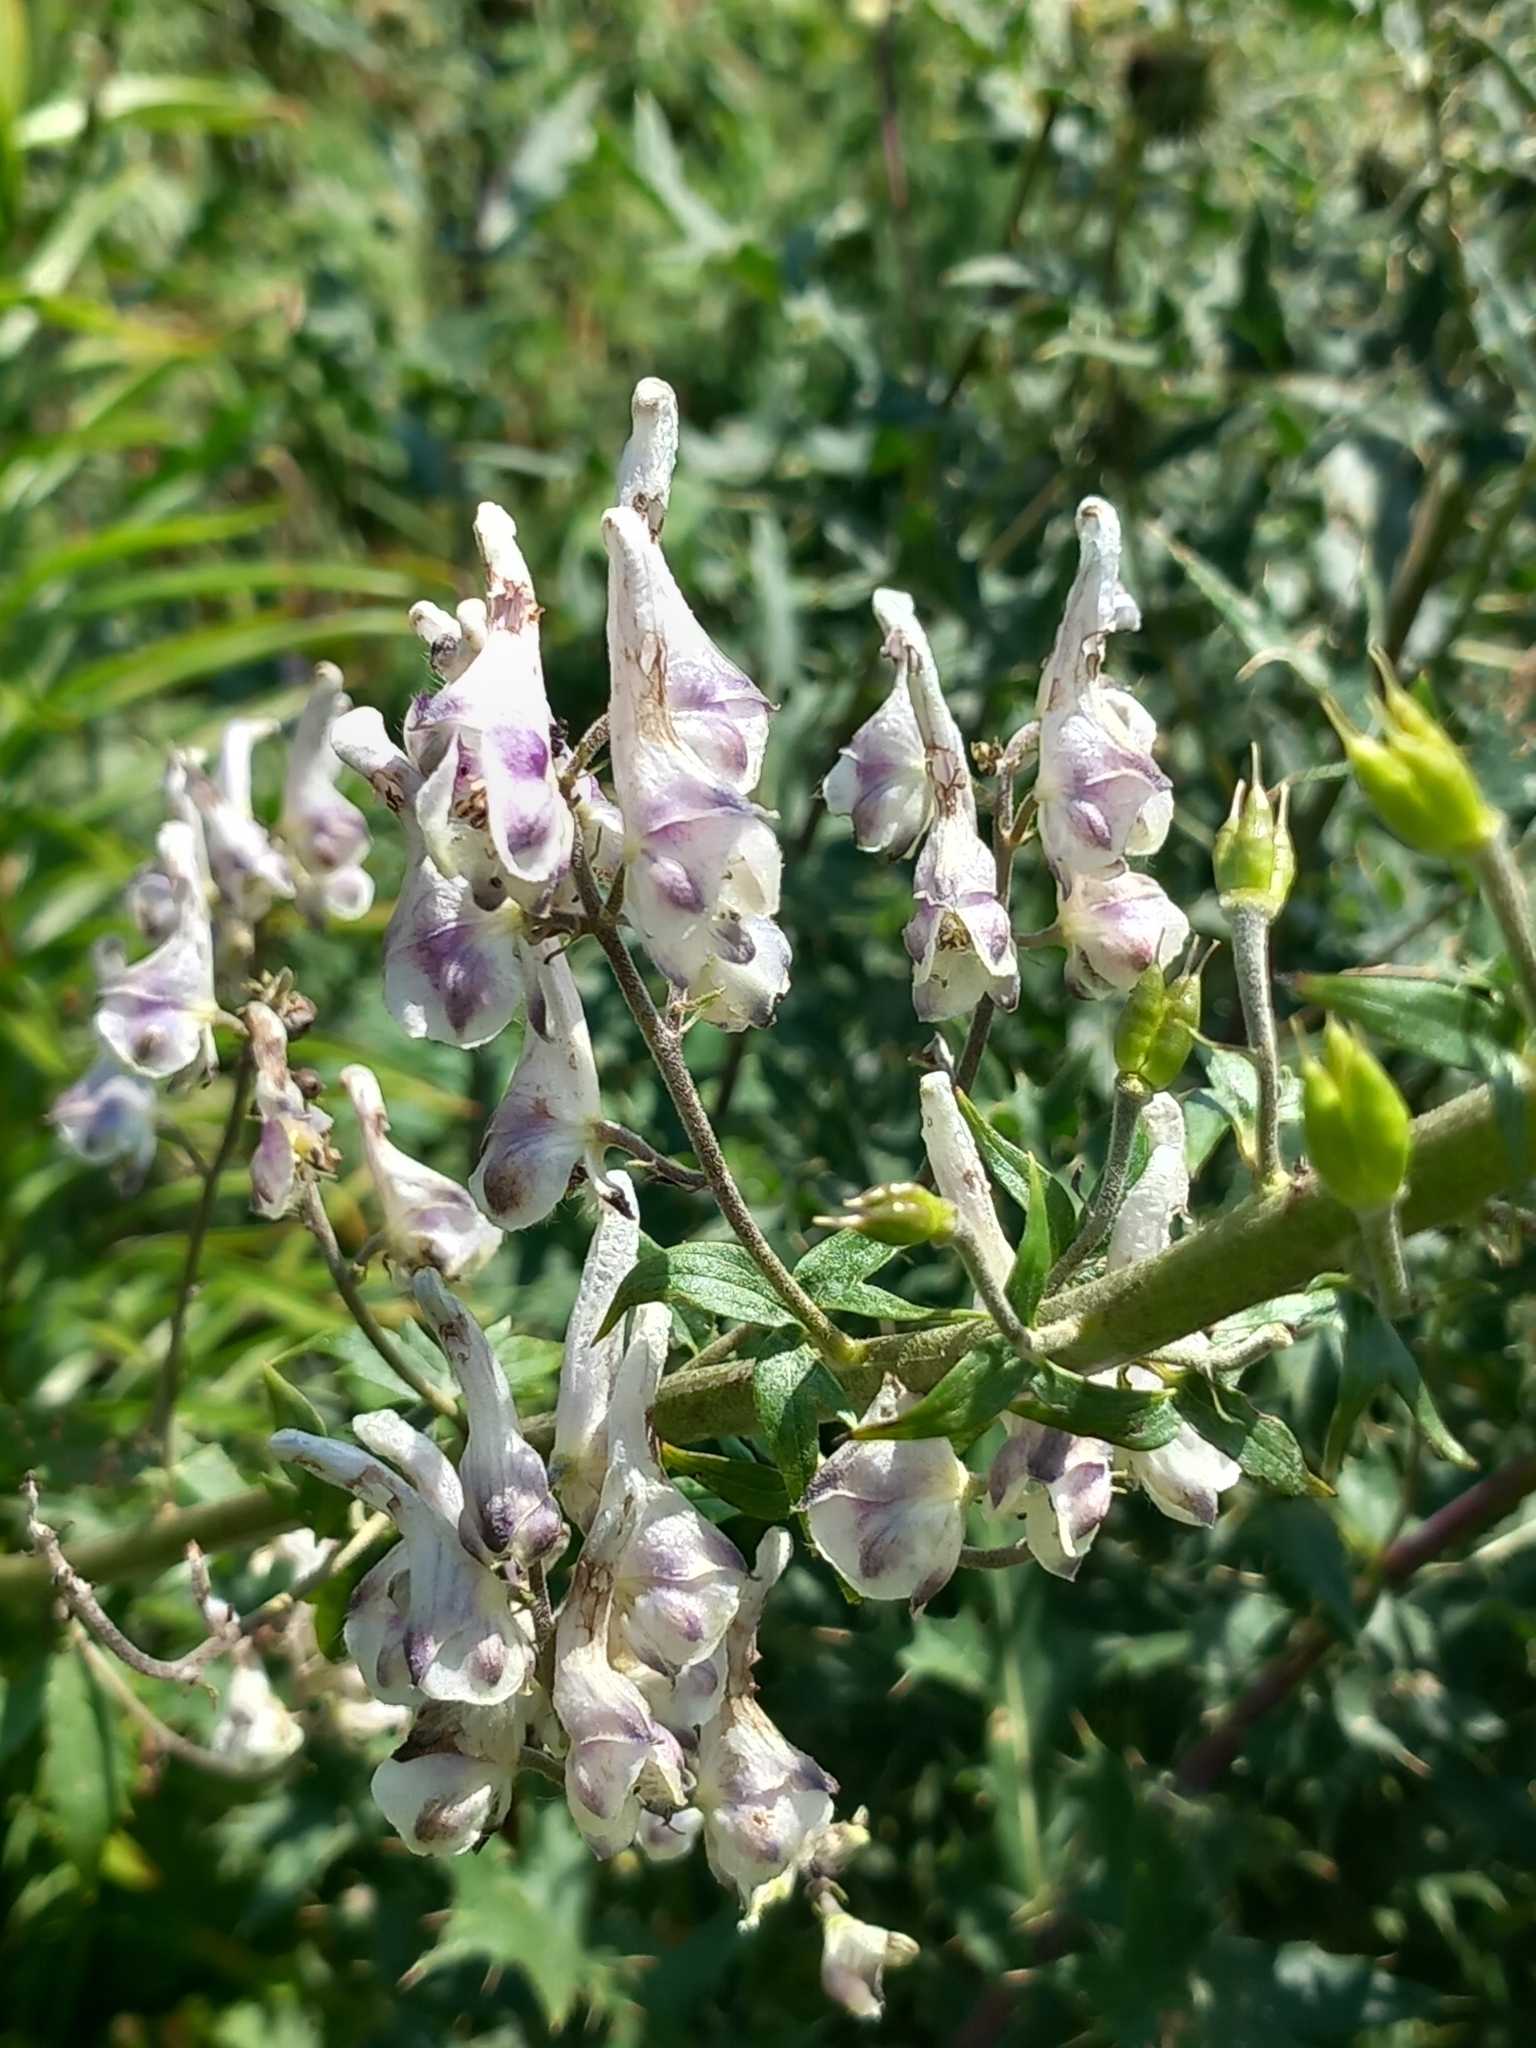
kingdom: Plantae
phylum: Tracheophyta
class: Magnoliopsida
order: Ranunculales
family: Ranunculaceae
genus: Aconitum
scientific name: Aconitum orientale
